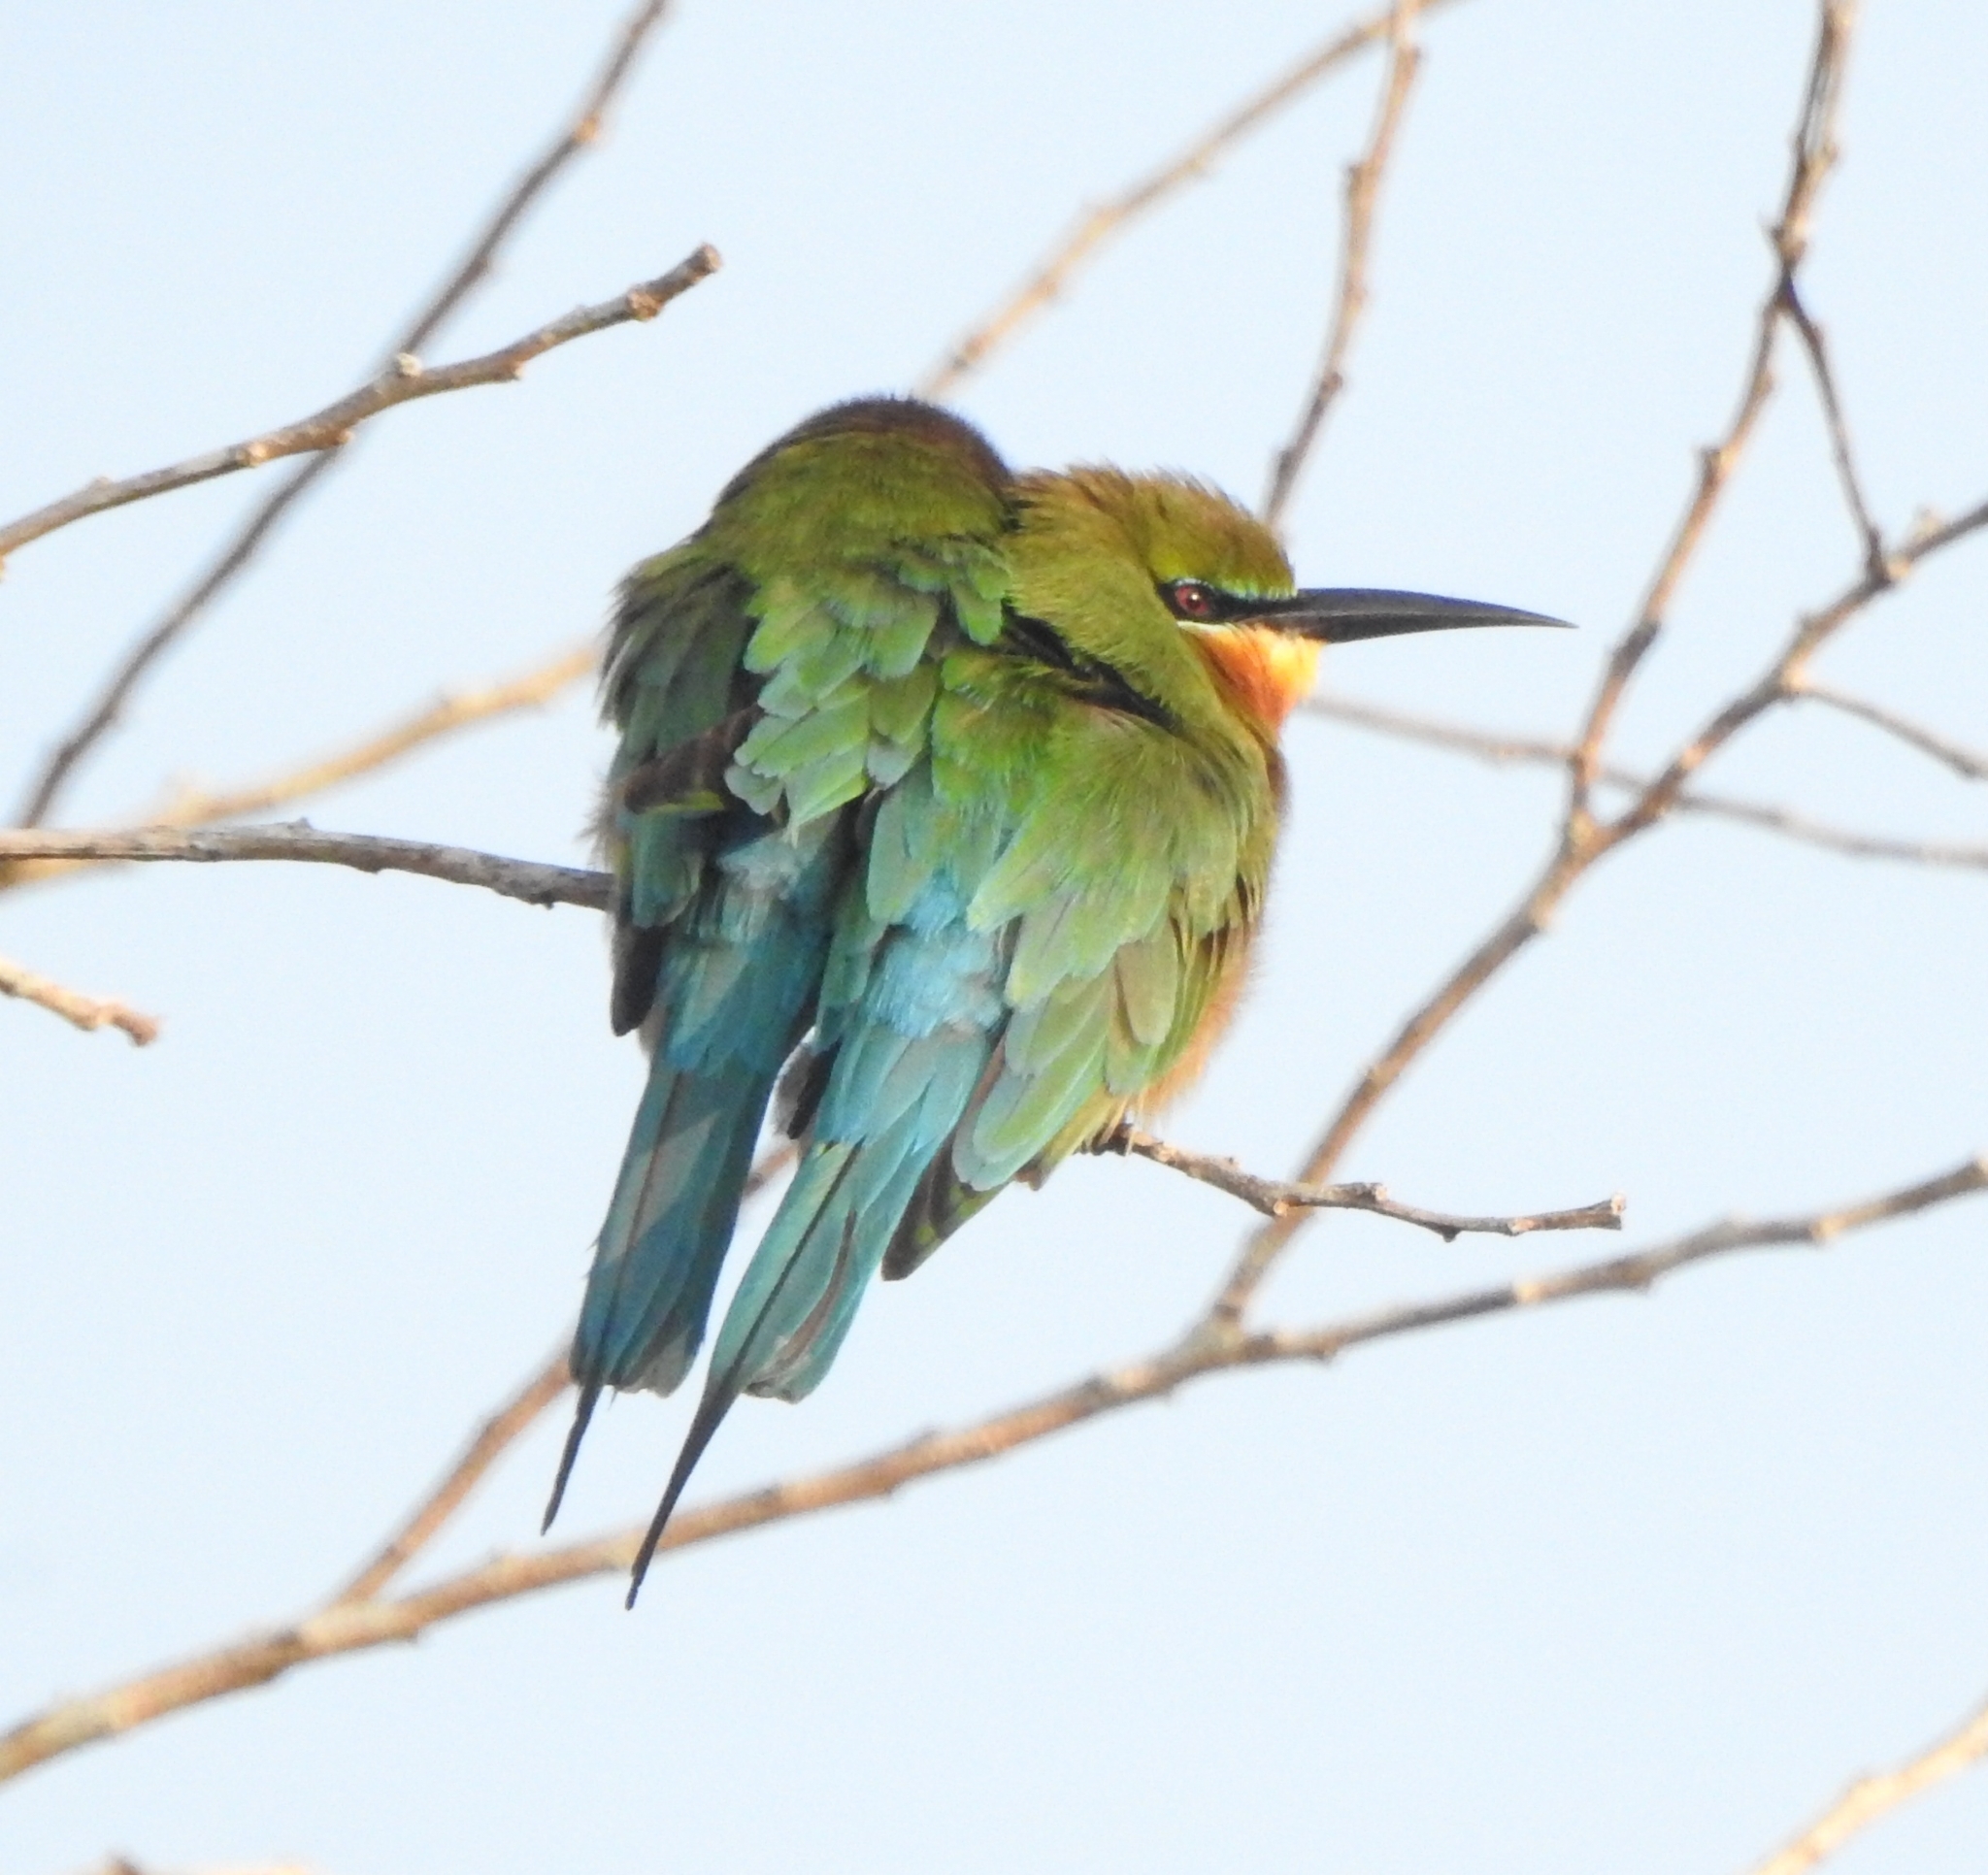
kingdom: Animalia
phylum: Chordata
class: Aves
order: Coraciiformes
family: Meropidae
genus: Merops
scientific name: Merops philippinus
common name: Blue-tailed bee-eater
